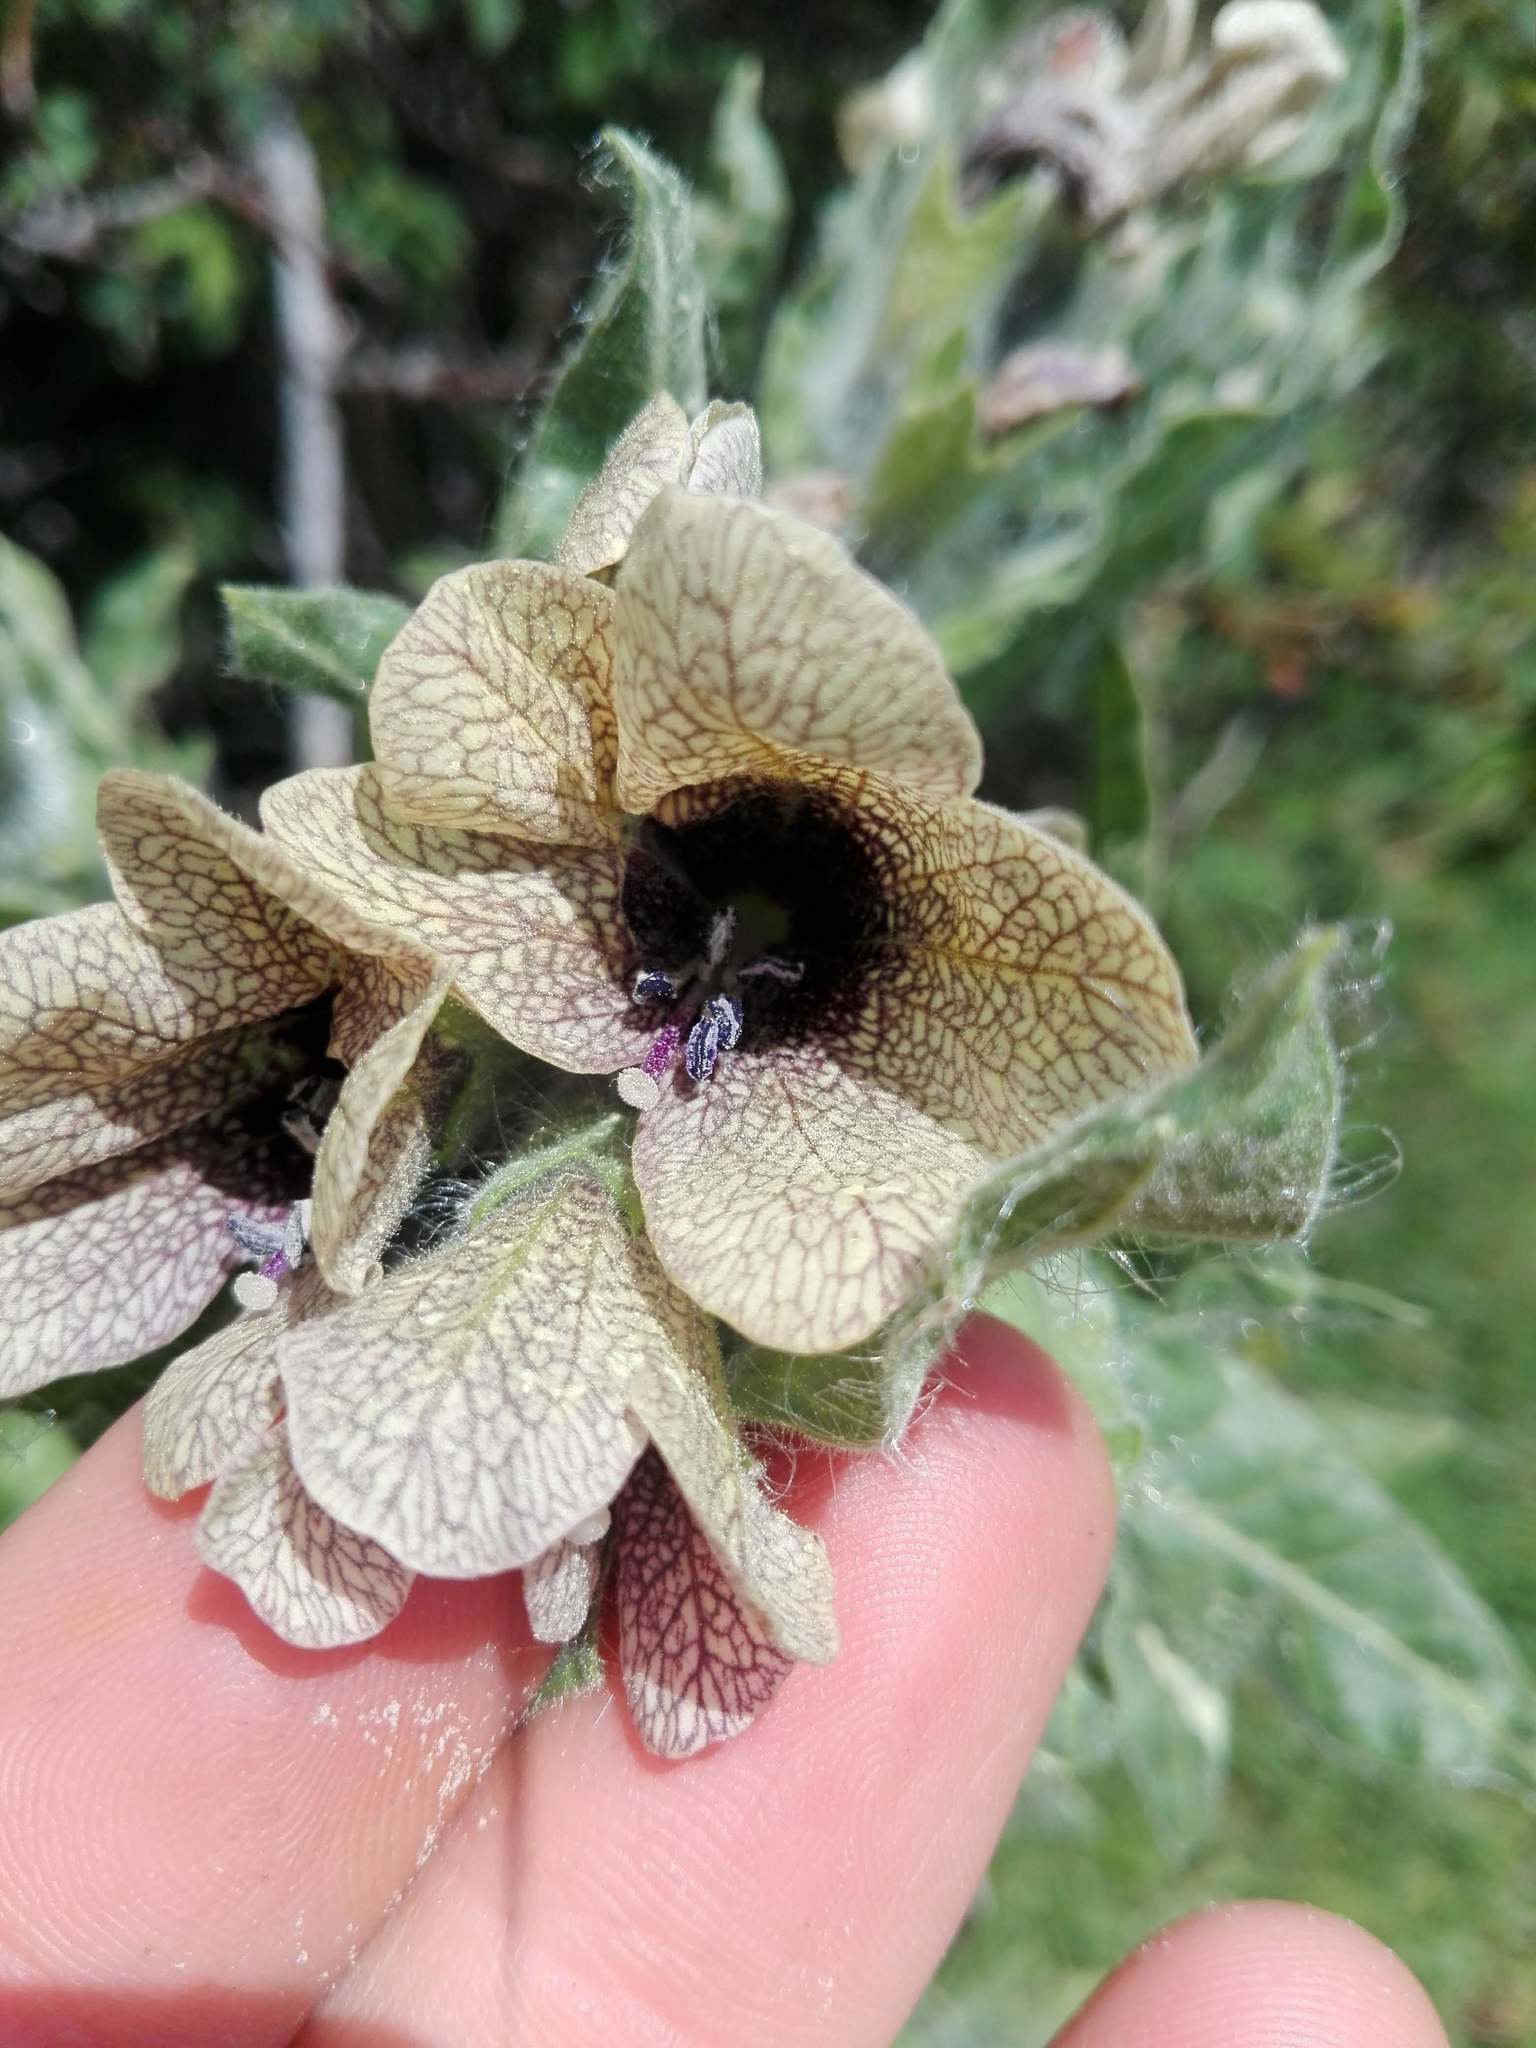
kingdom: Plantae
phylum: Tracheophyta
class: Magnoliopsida
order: Solanales
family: Solanaceae
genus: Hyoscyamus
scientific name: Hyoscyamus niger
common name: Henbane
